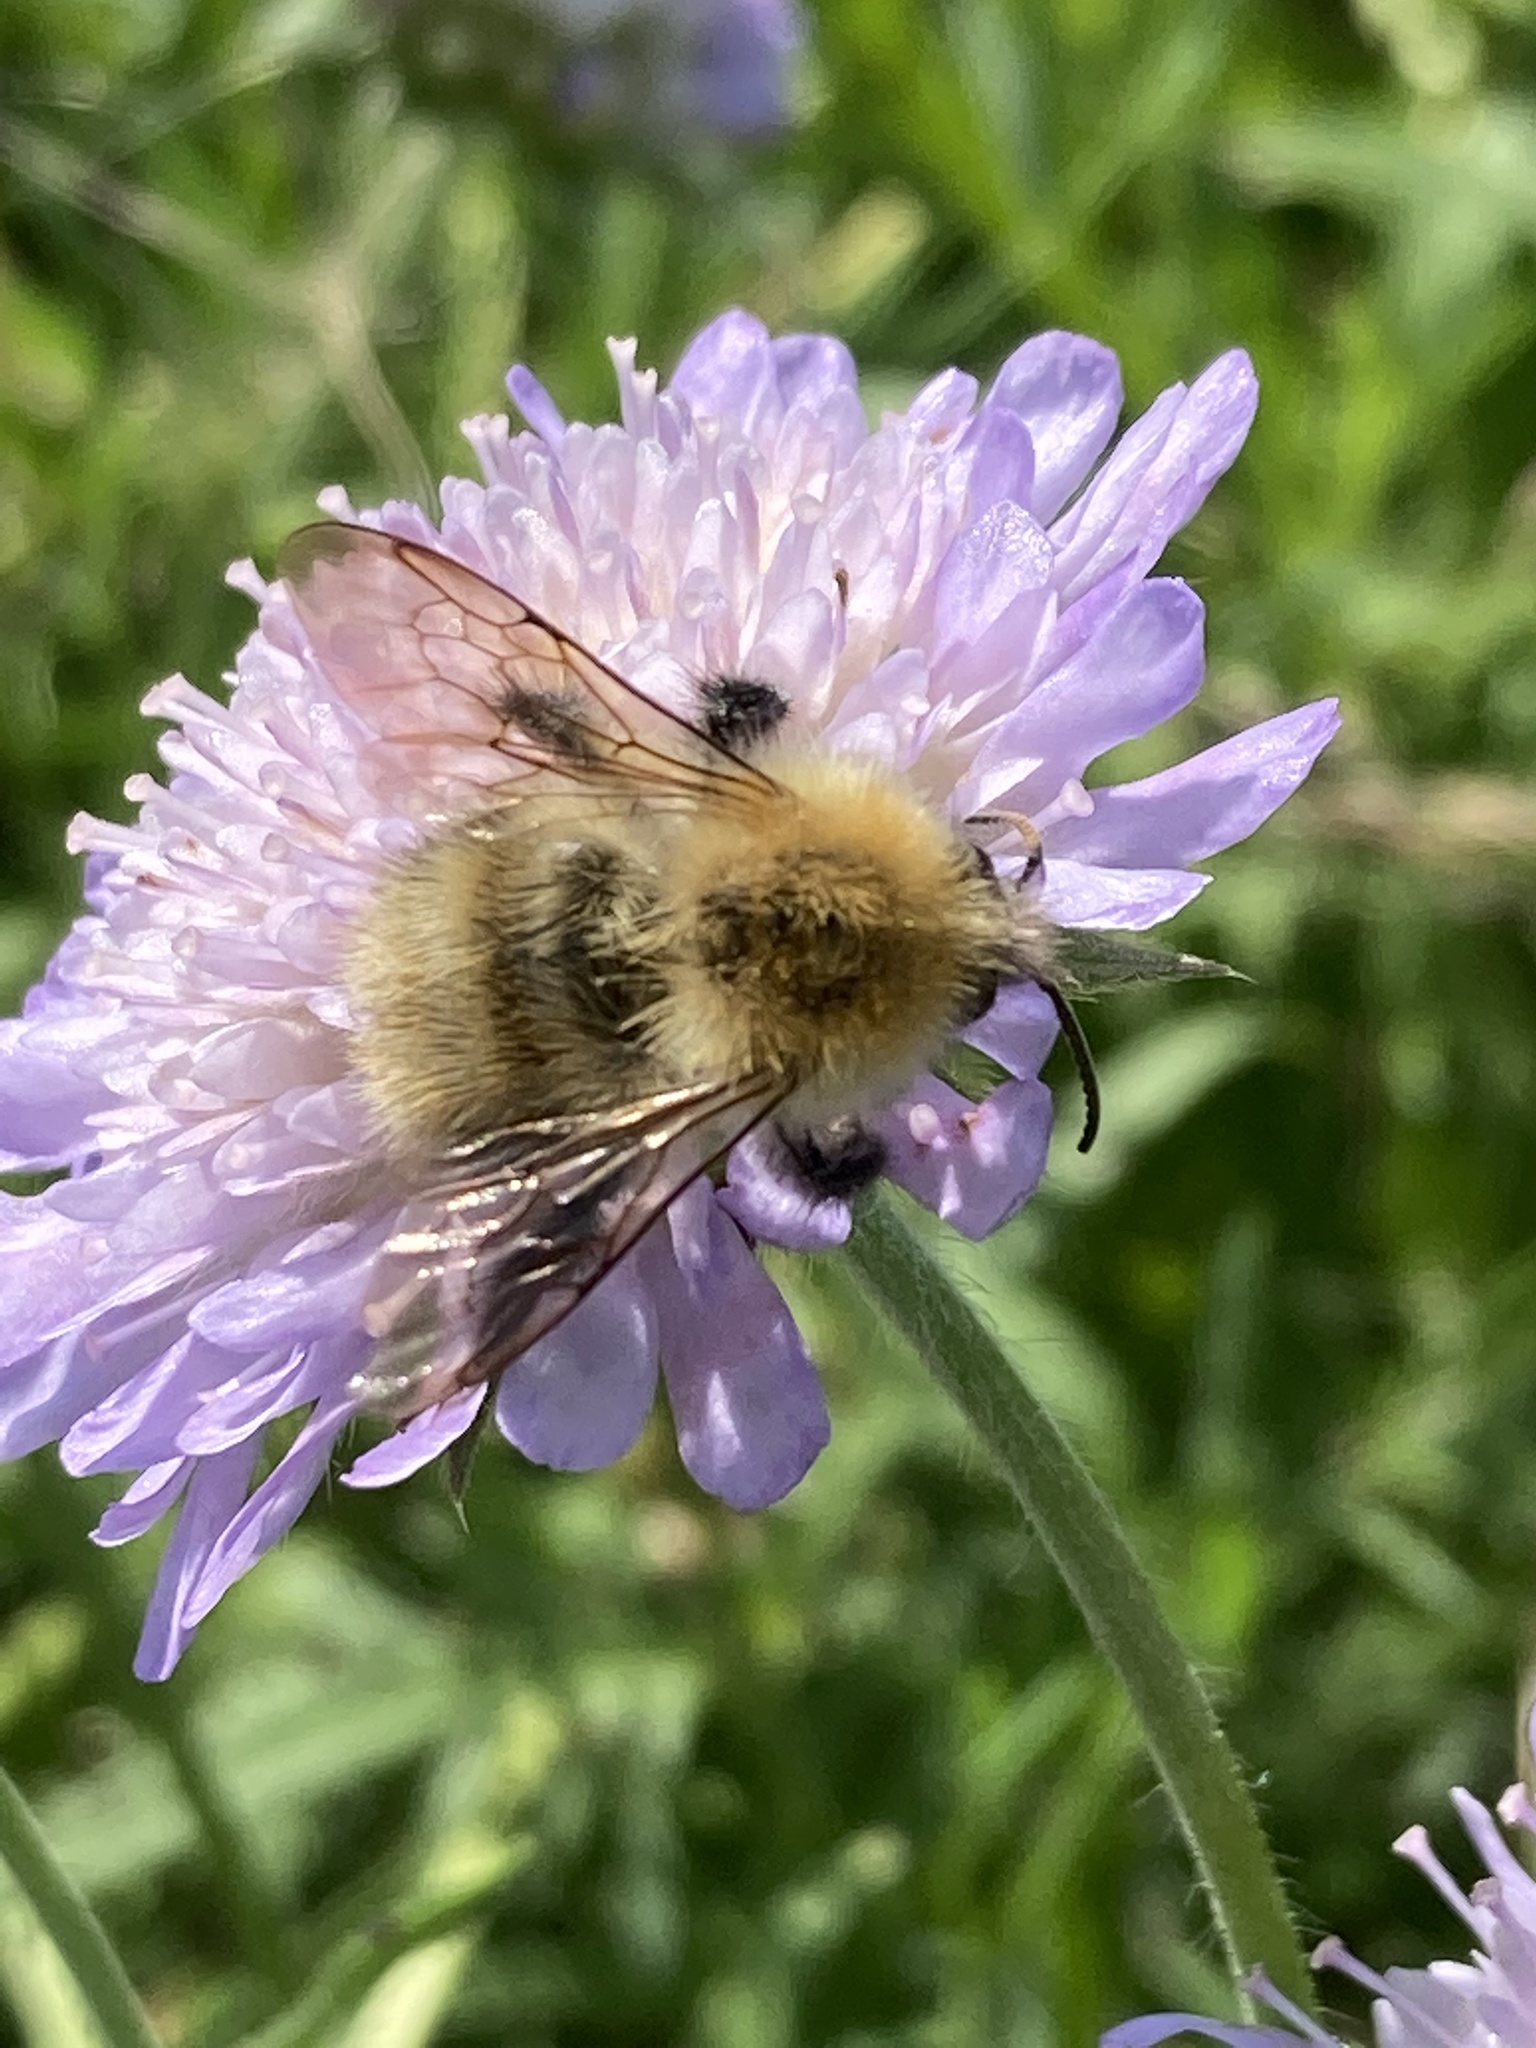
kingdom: Animalia
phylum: Arthropoda
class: Insecta
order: Hymenoptera
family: Apidae
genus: Bombus
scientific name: Bombus pascuorum
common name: Common carder bee
